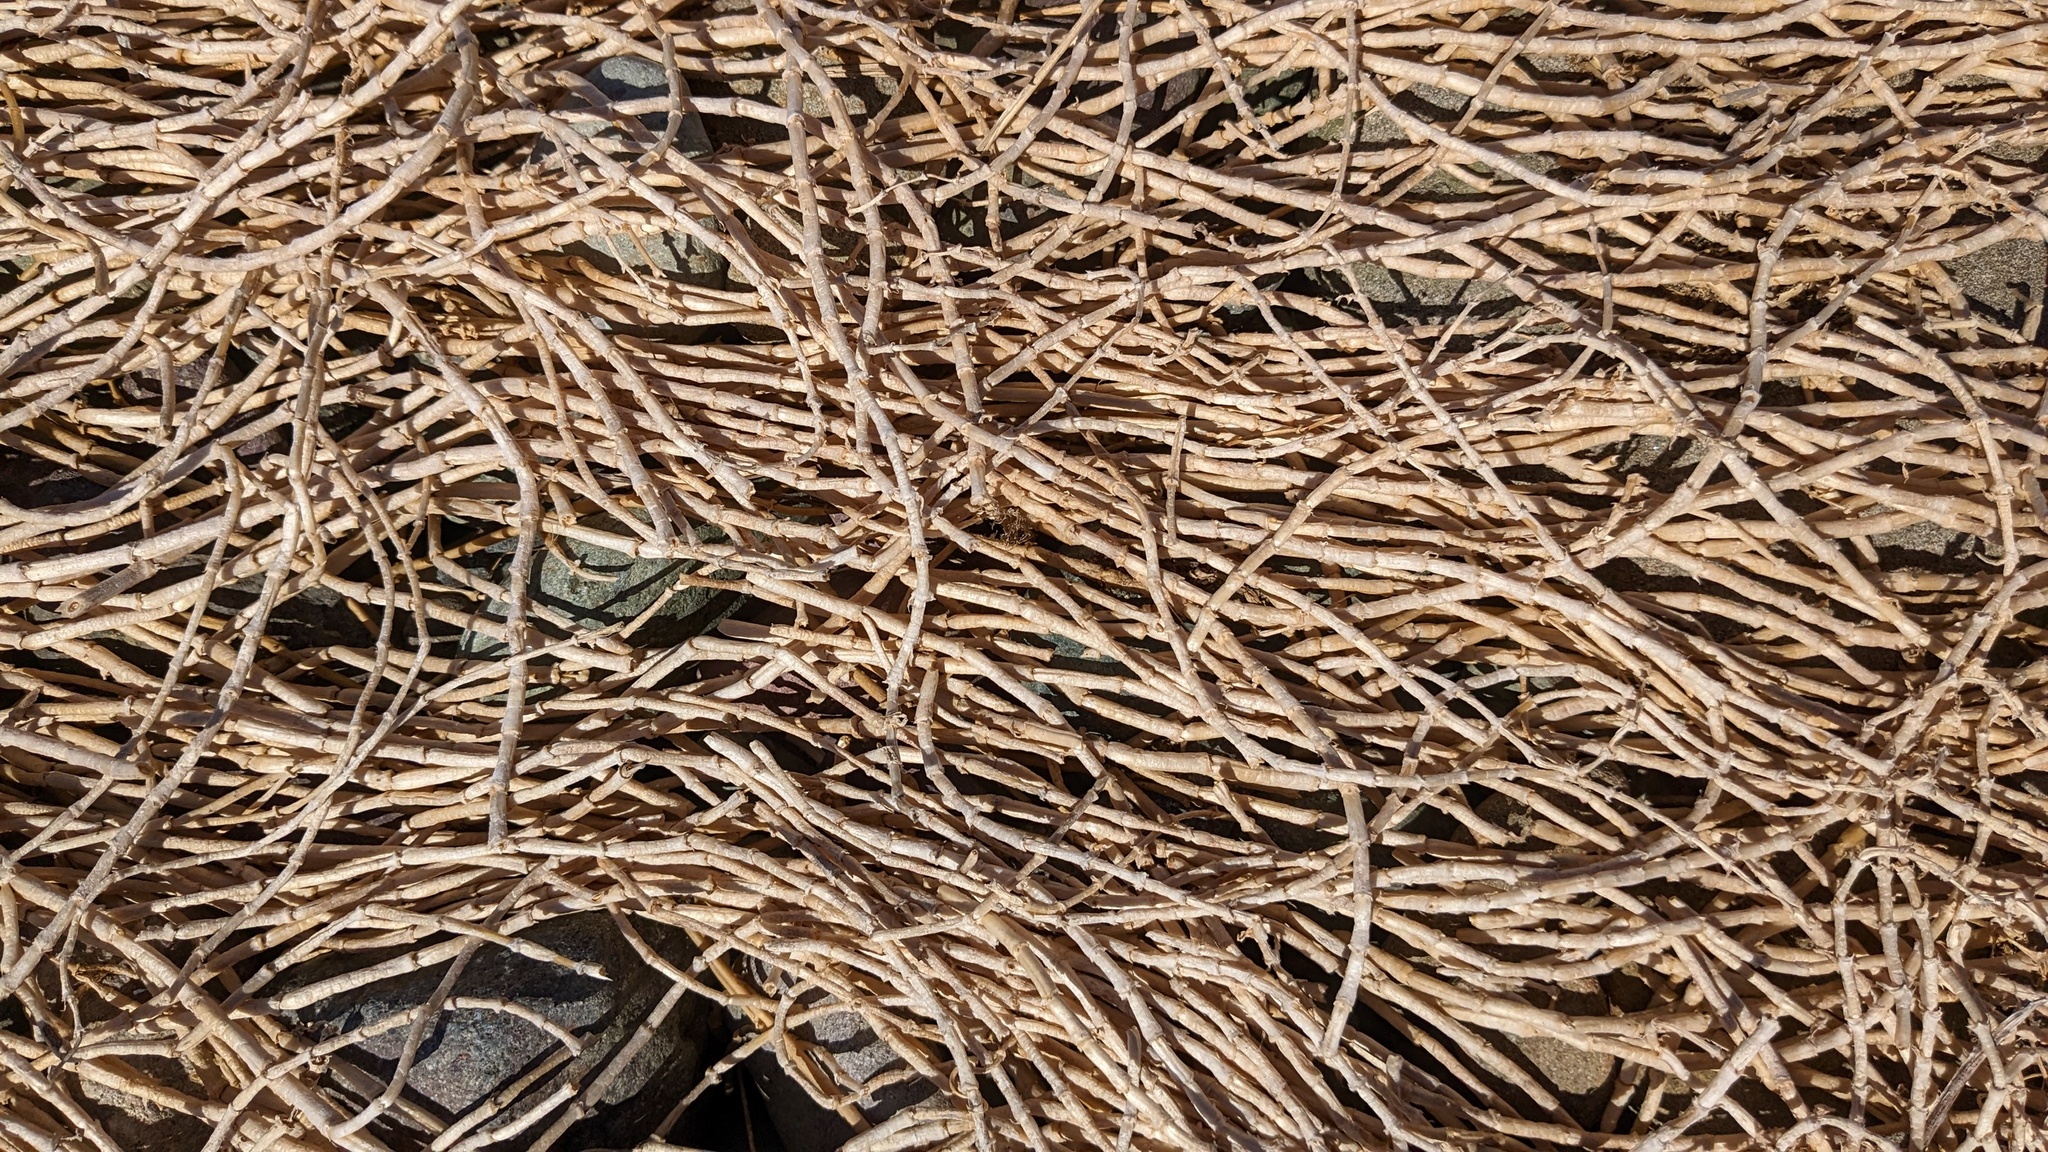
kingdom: Plantae
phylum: Tracheophyta
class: Magnoliopsida
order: Caryophyllales
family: Caryophyllaceae
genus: Honckenya
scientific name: Honckenya peploides
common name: Sea sandwort
